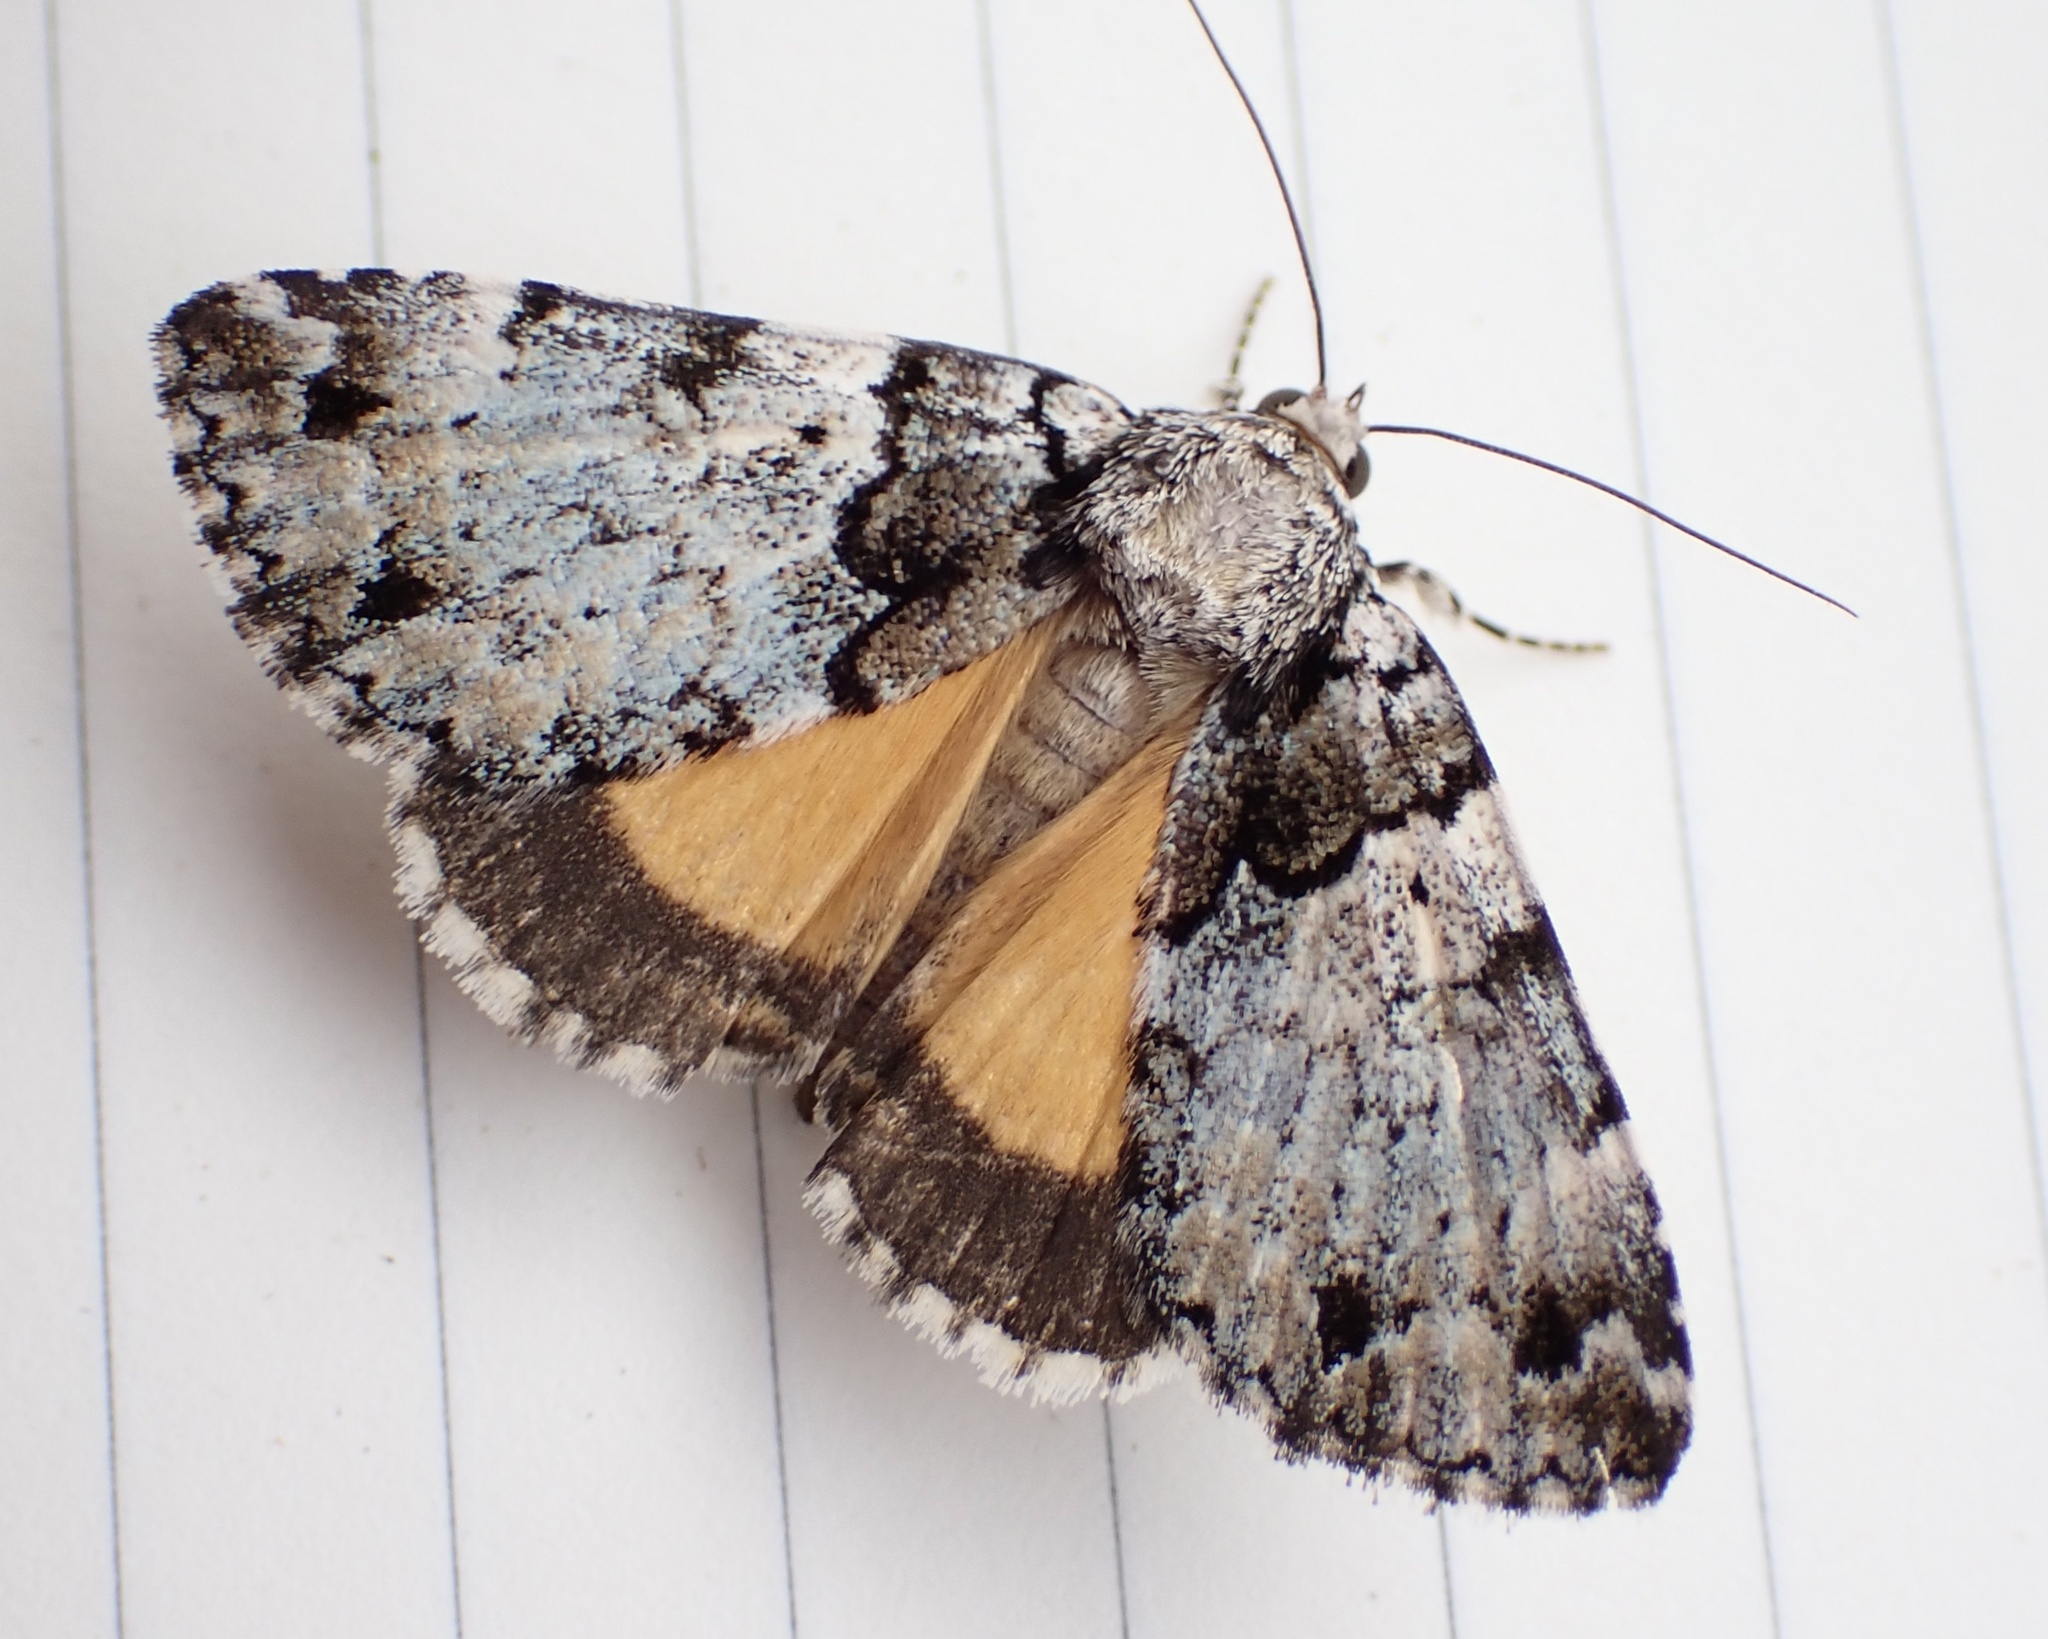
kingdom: Animalia
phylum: Arthropoda
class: Insecta
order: Lepidoptera
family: Erebidae
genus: Allotria
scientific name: Allotria elonympha
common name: False underwing
